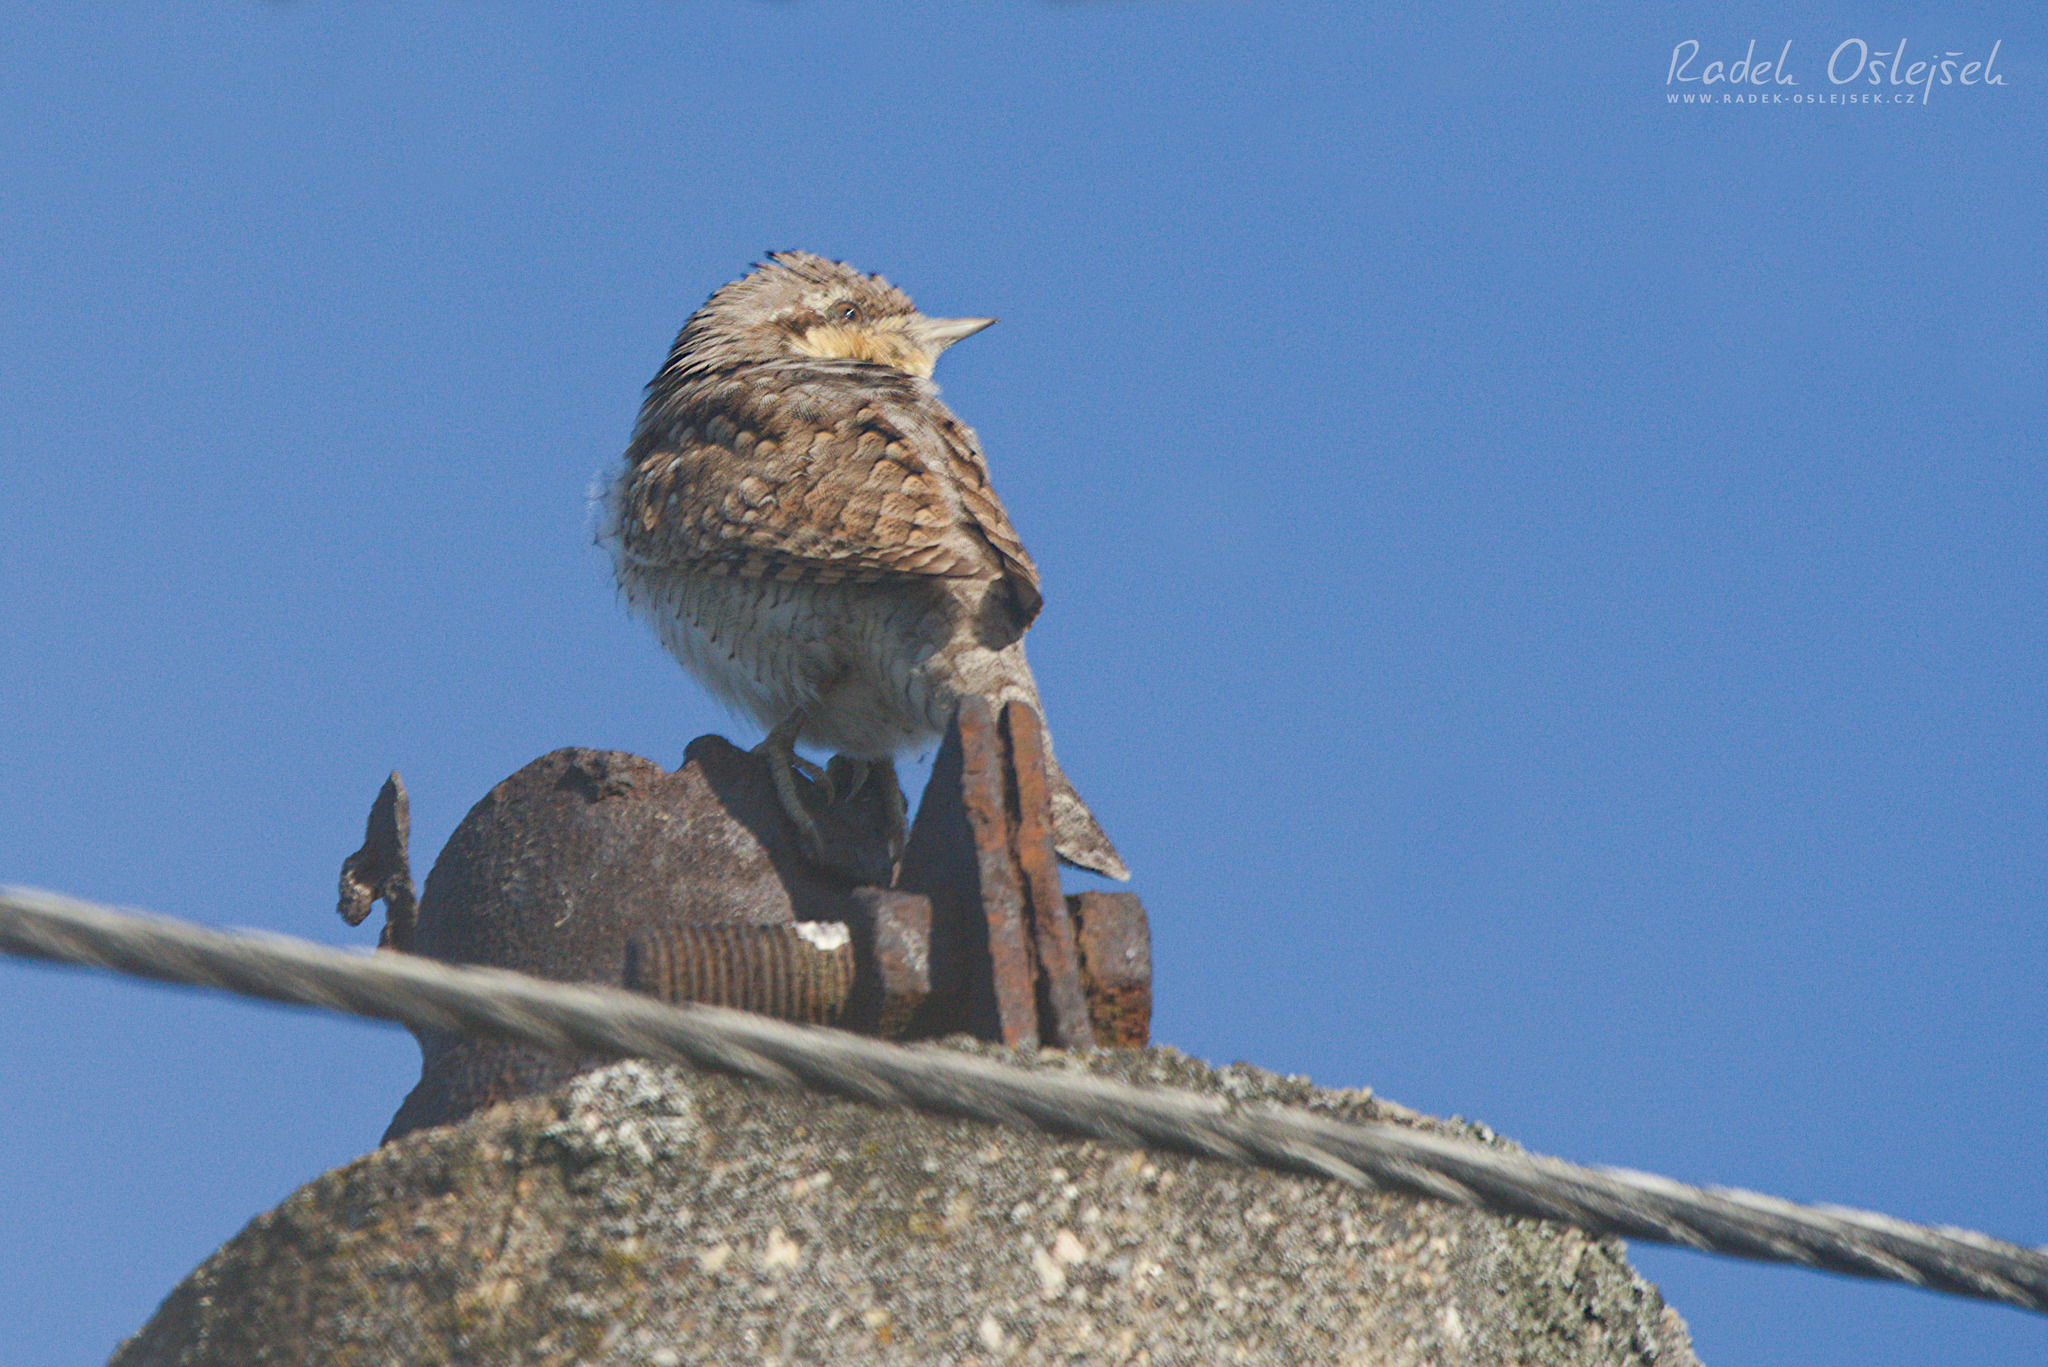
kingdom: Animalia
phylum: Chordata
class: Aves
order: Piciformes
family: Picidae
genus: Jynx
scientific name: Jynx torquilla
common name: Eurasian wryneck
